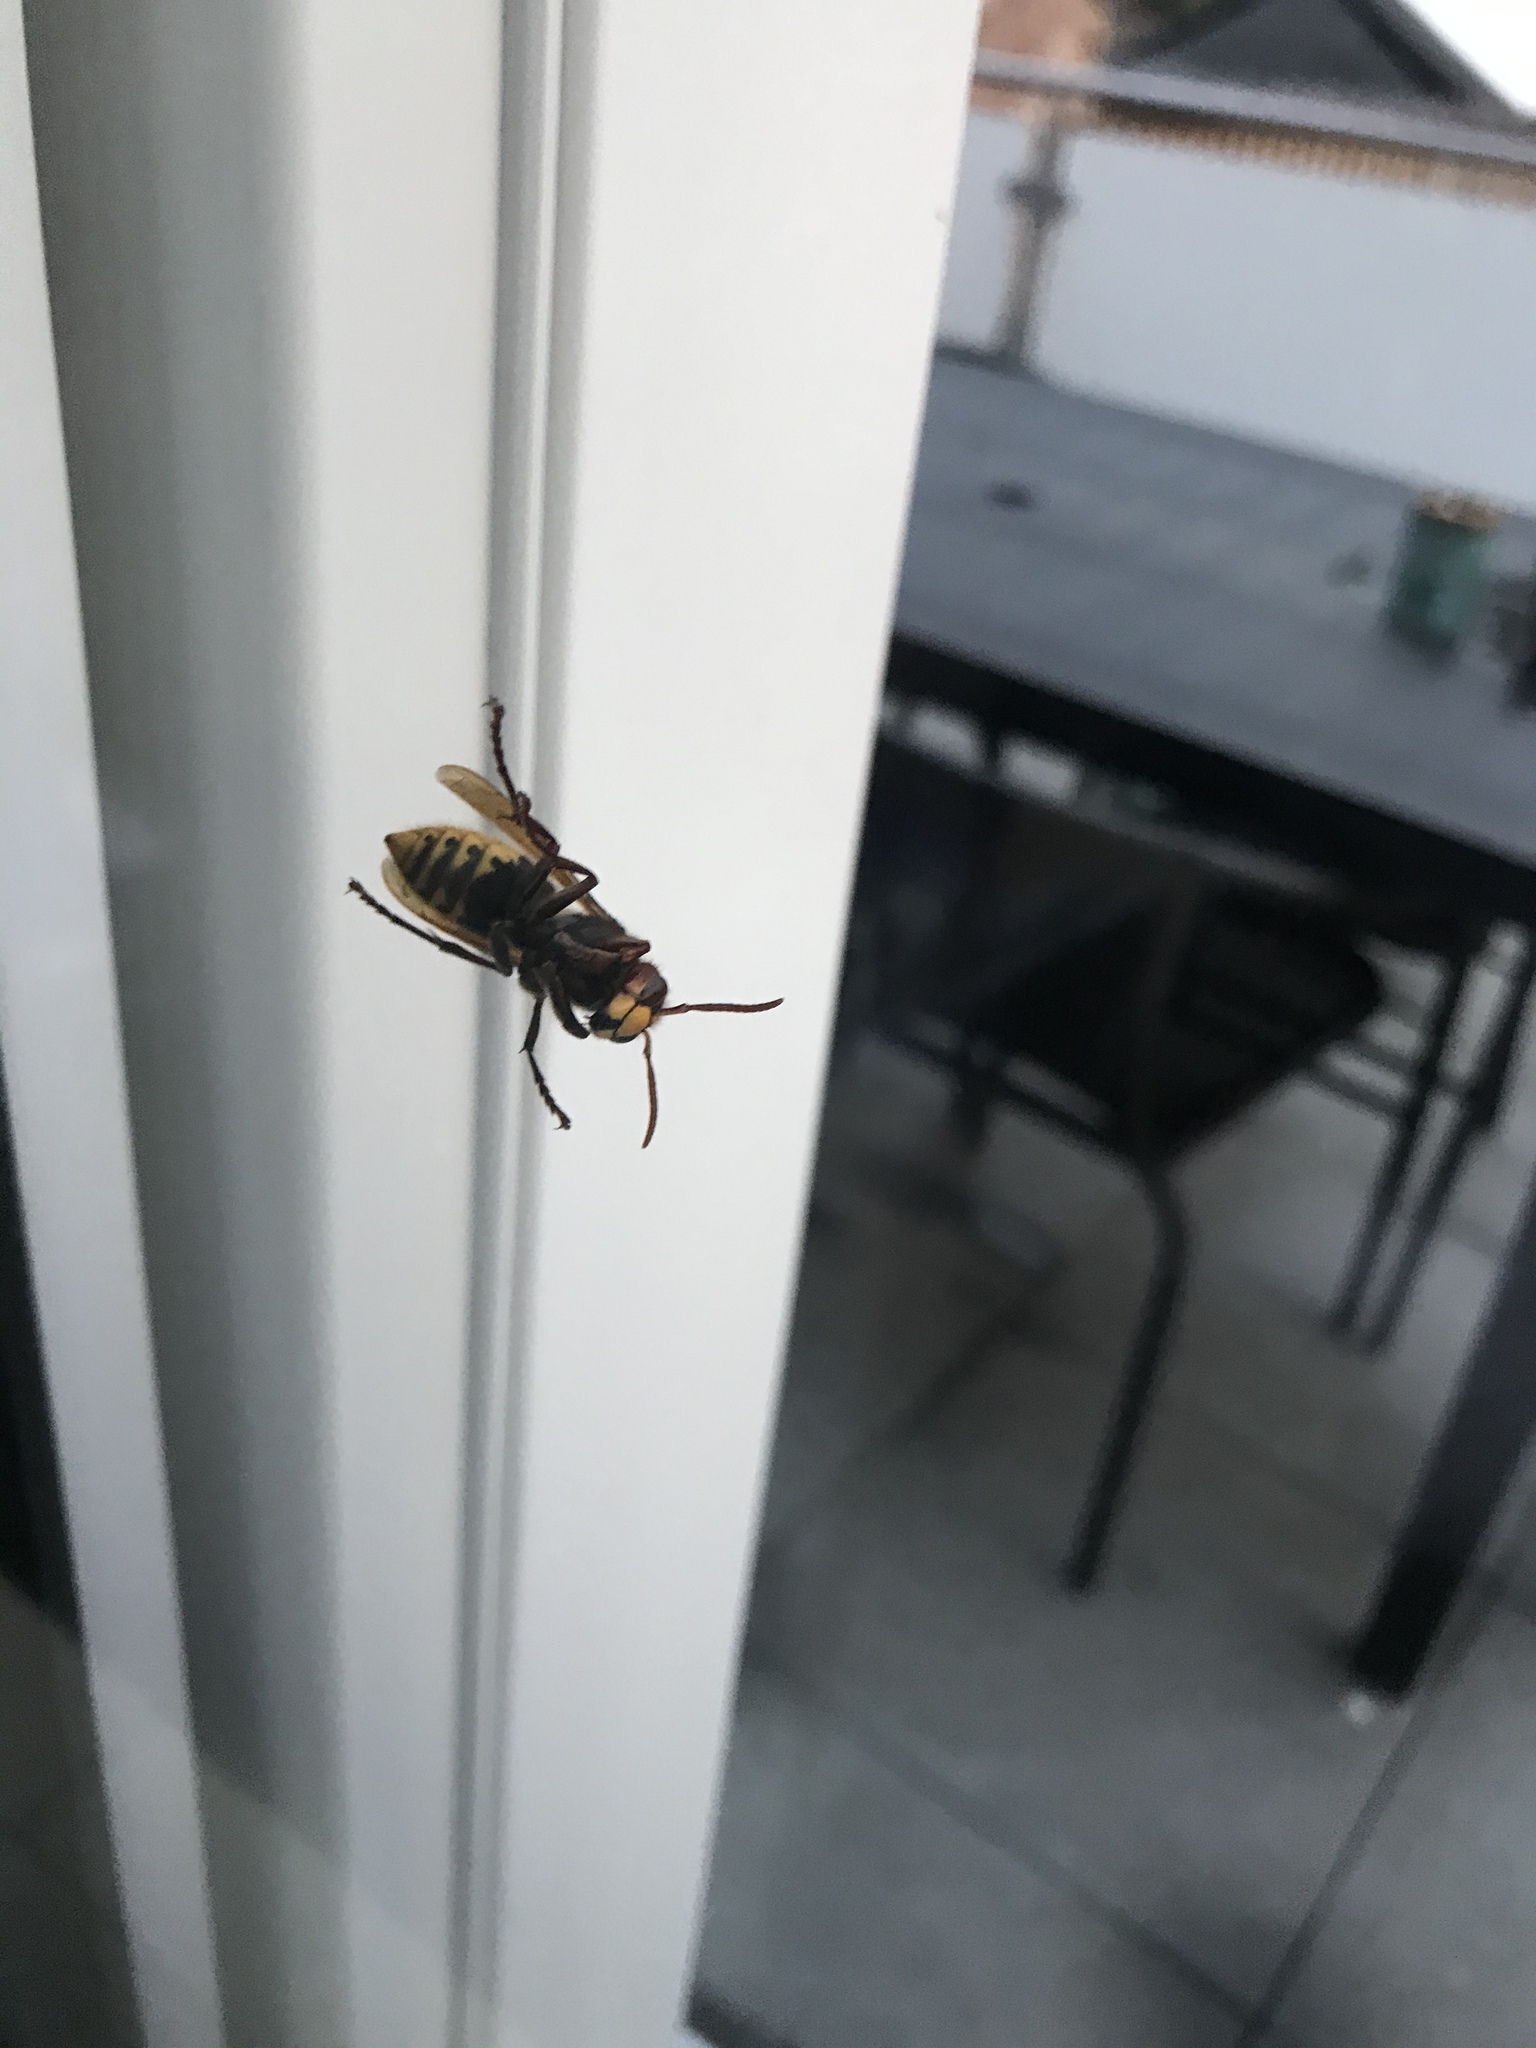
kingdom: Animalia
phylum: Arthropoda
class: Insecta
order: Hymenoptera
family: Vespidae
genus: Vespa
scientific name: Vespa crabro
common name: Hornet
